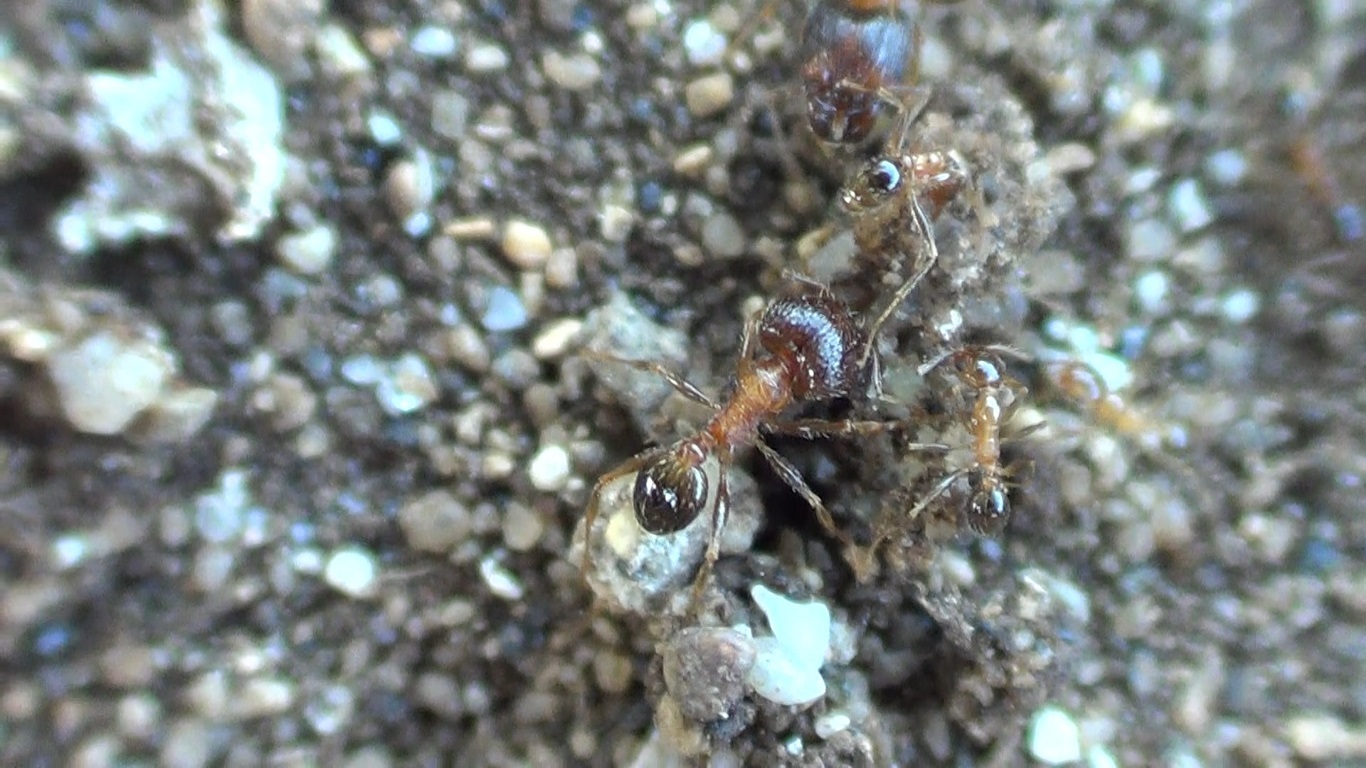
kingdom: Animalia
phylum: Arthropoda
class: Insecta
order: Hymenoptera
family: Formicidae
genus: Pheidole
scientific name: Pheidole indica
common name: Big-headed ant
